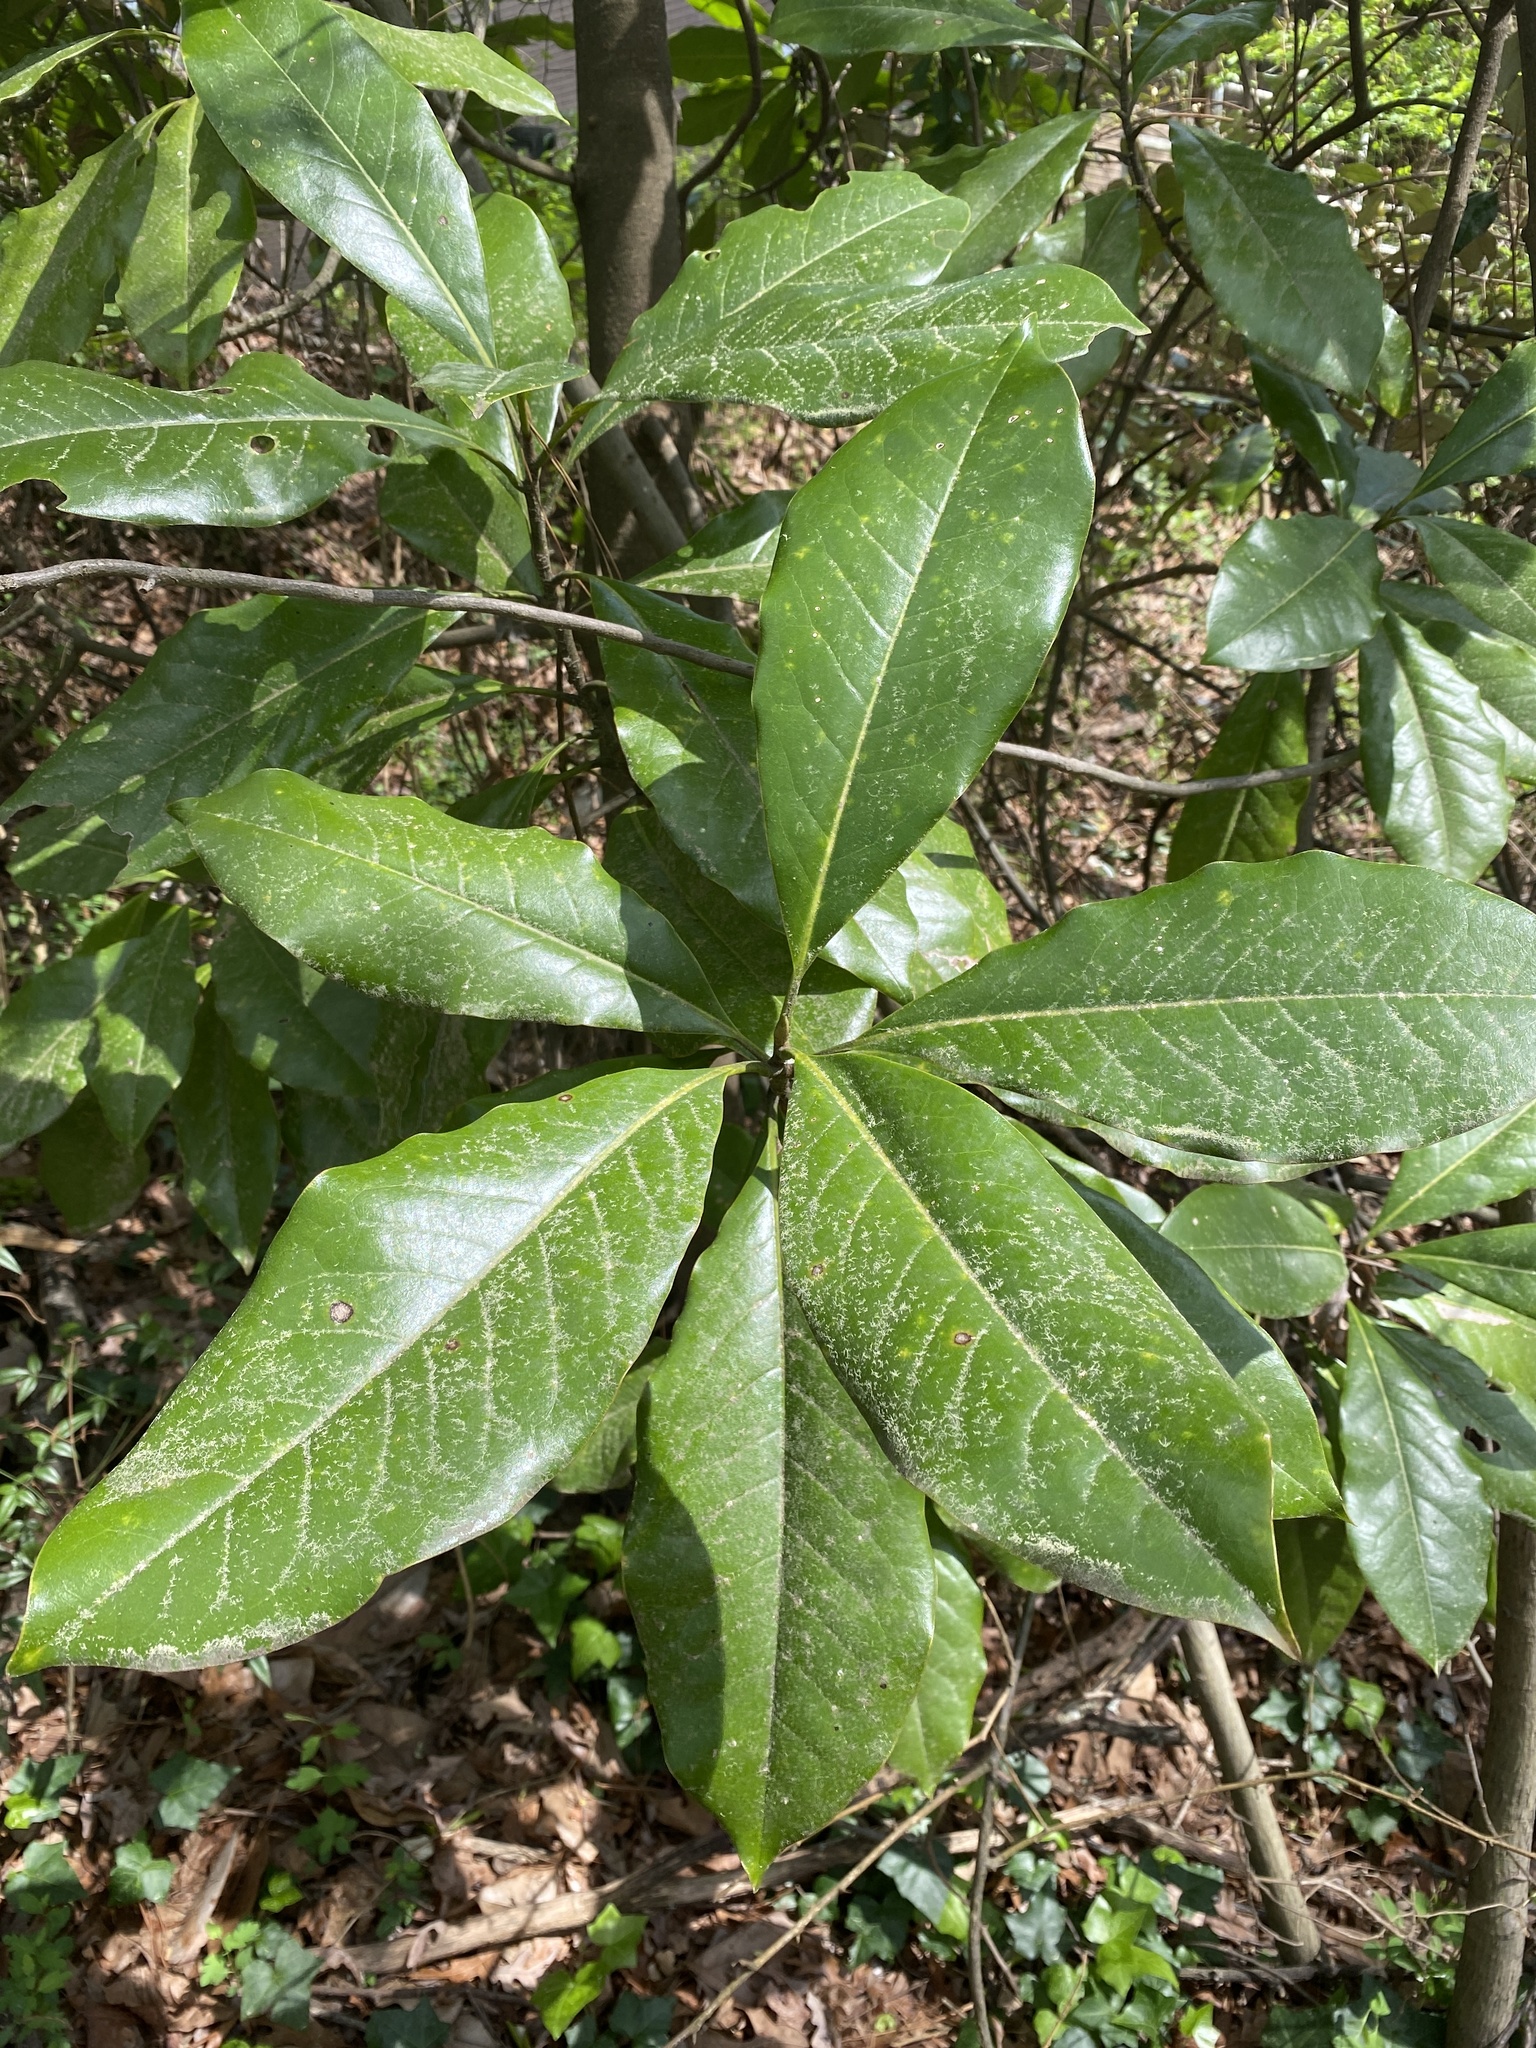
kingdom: Plantae
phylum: Tracheophyta
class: Magnoliopsida
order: Magnoliales
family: Magnoliaceae
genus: Magnolia
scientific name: Magnolia grandiflora
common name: Southern magnolia
